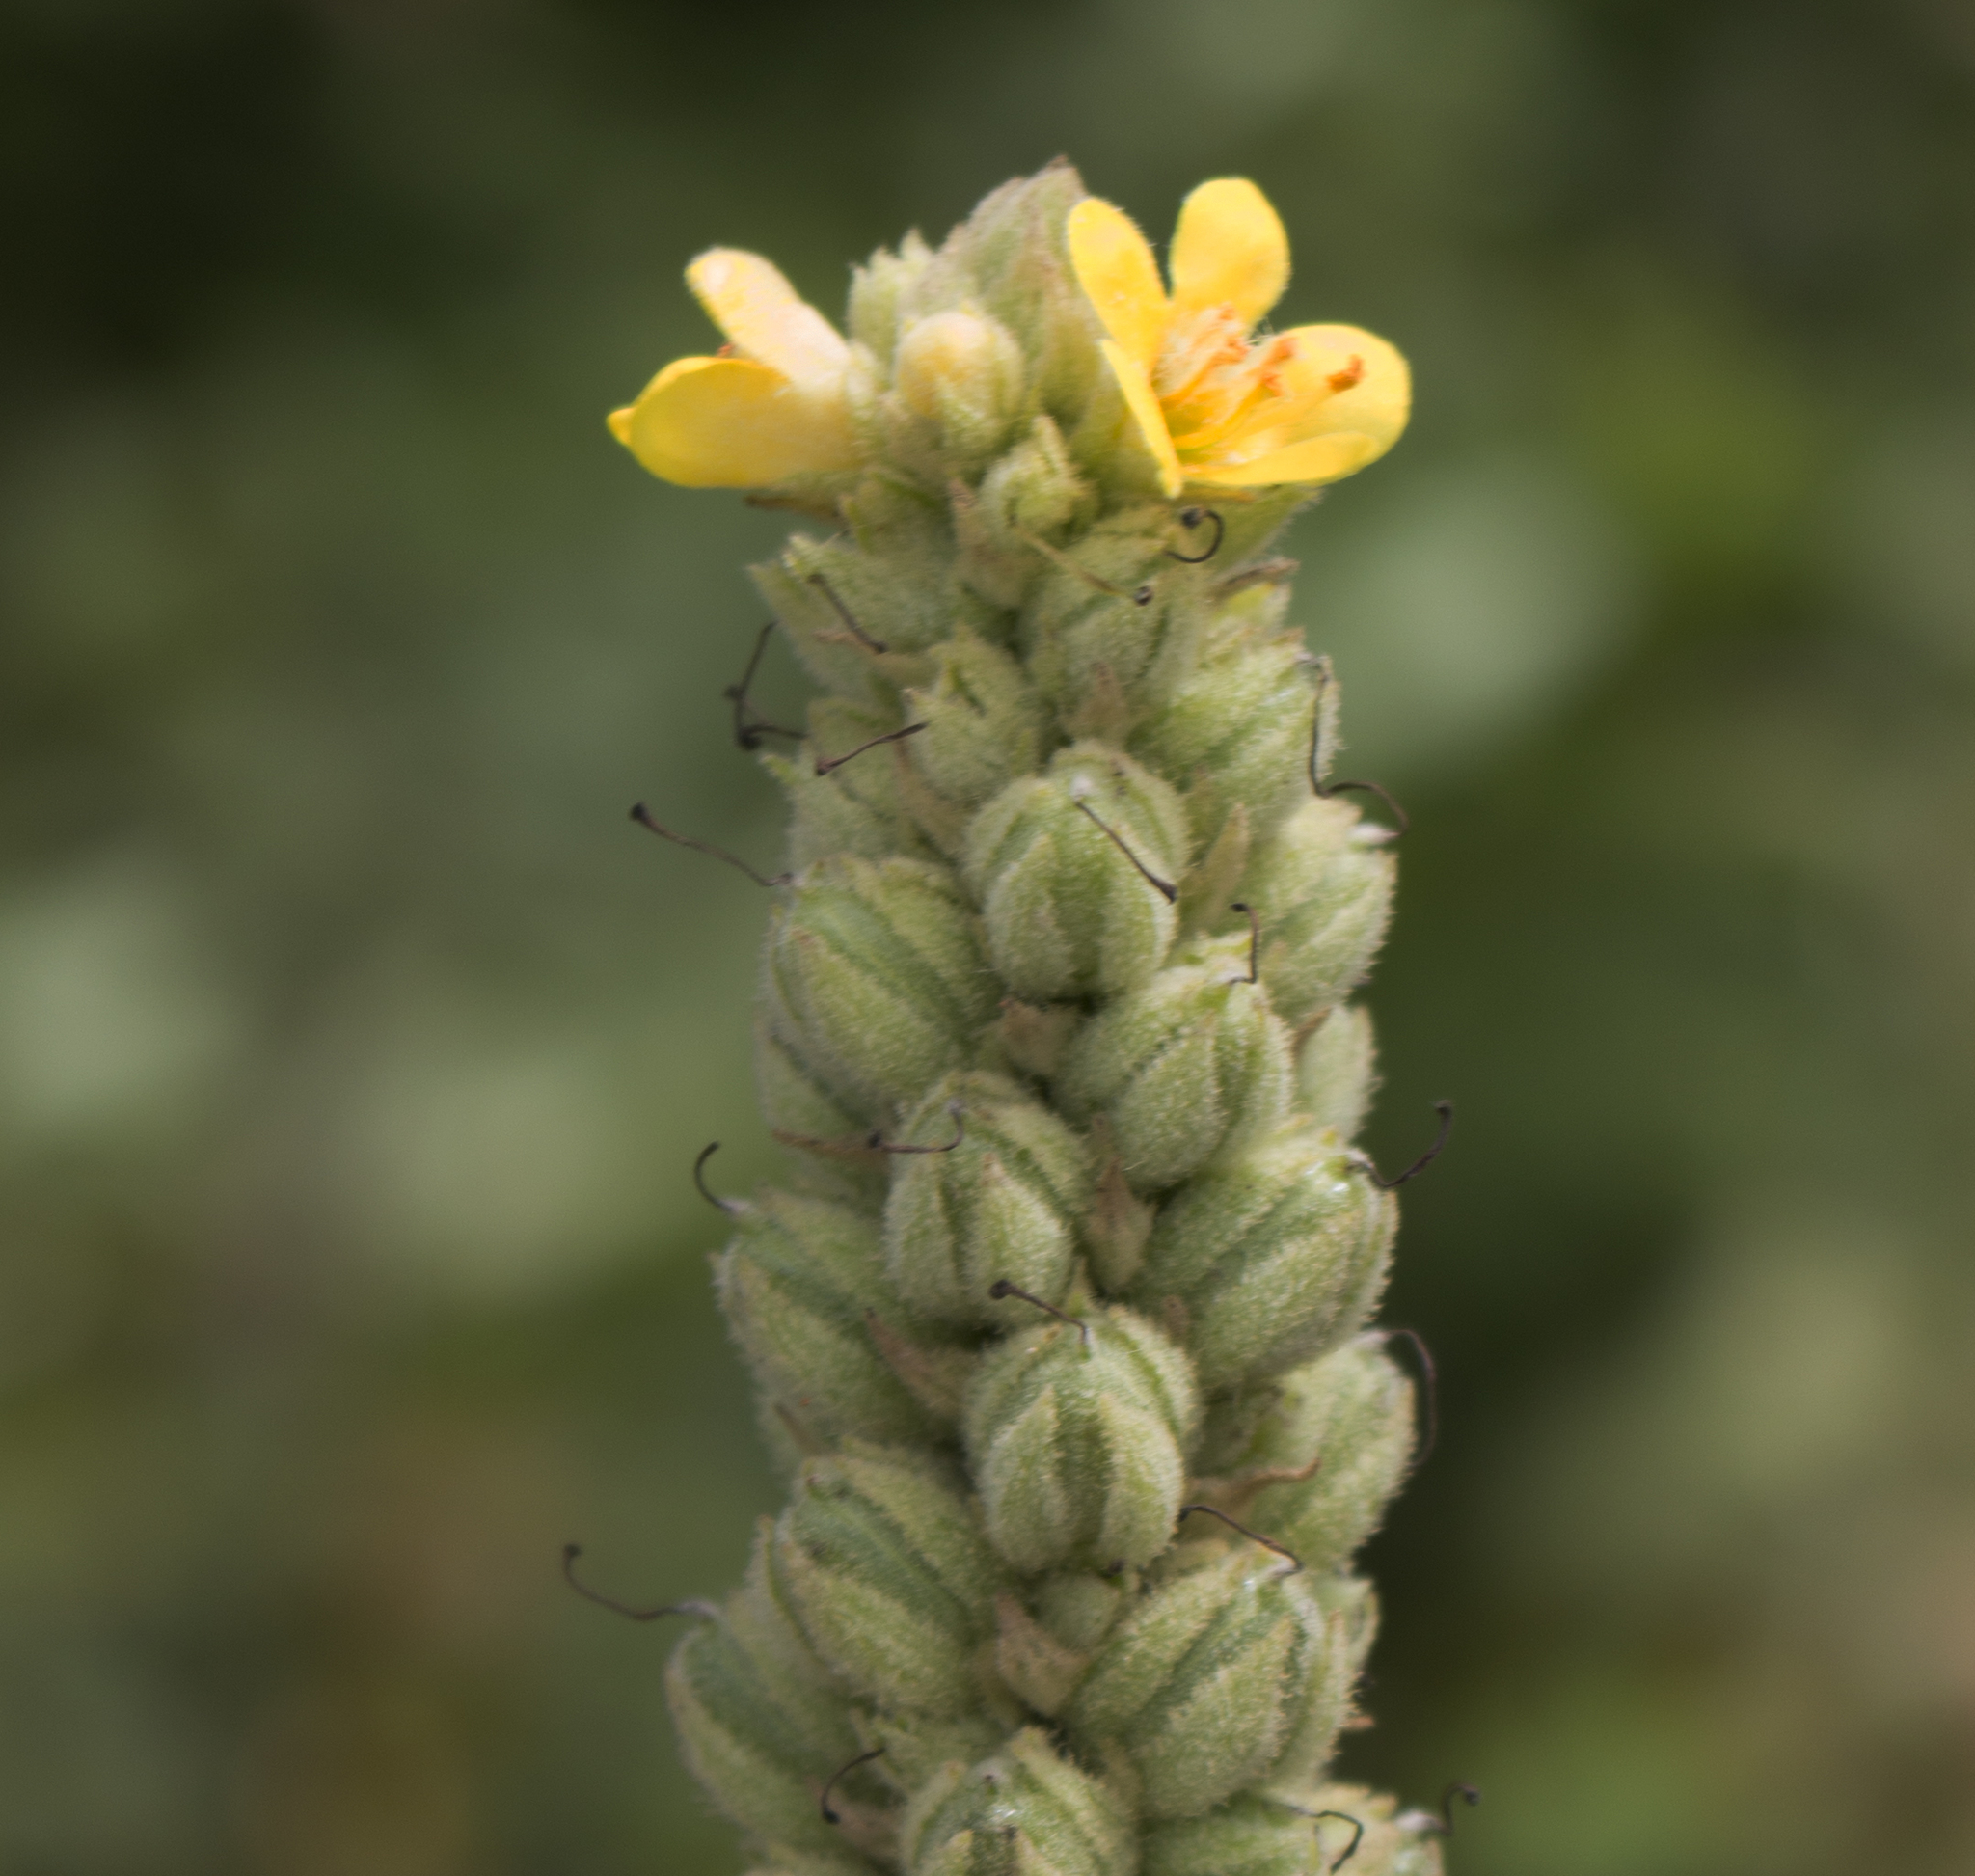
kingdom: Plantae
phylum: Tracheophyta
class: Magnoliopsida
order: Lamiales
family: Scrophulariaceae
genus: Verbascum
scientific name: Verbascum thapsus
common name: Common mullein
